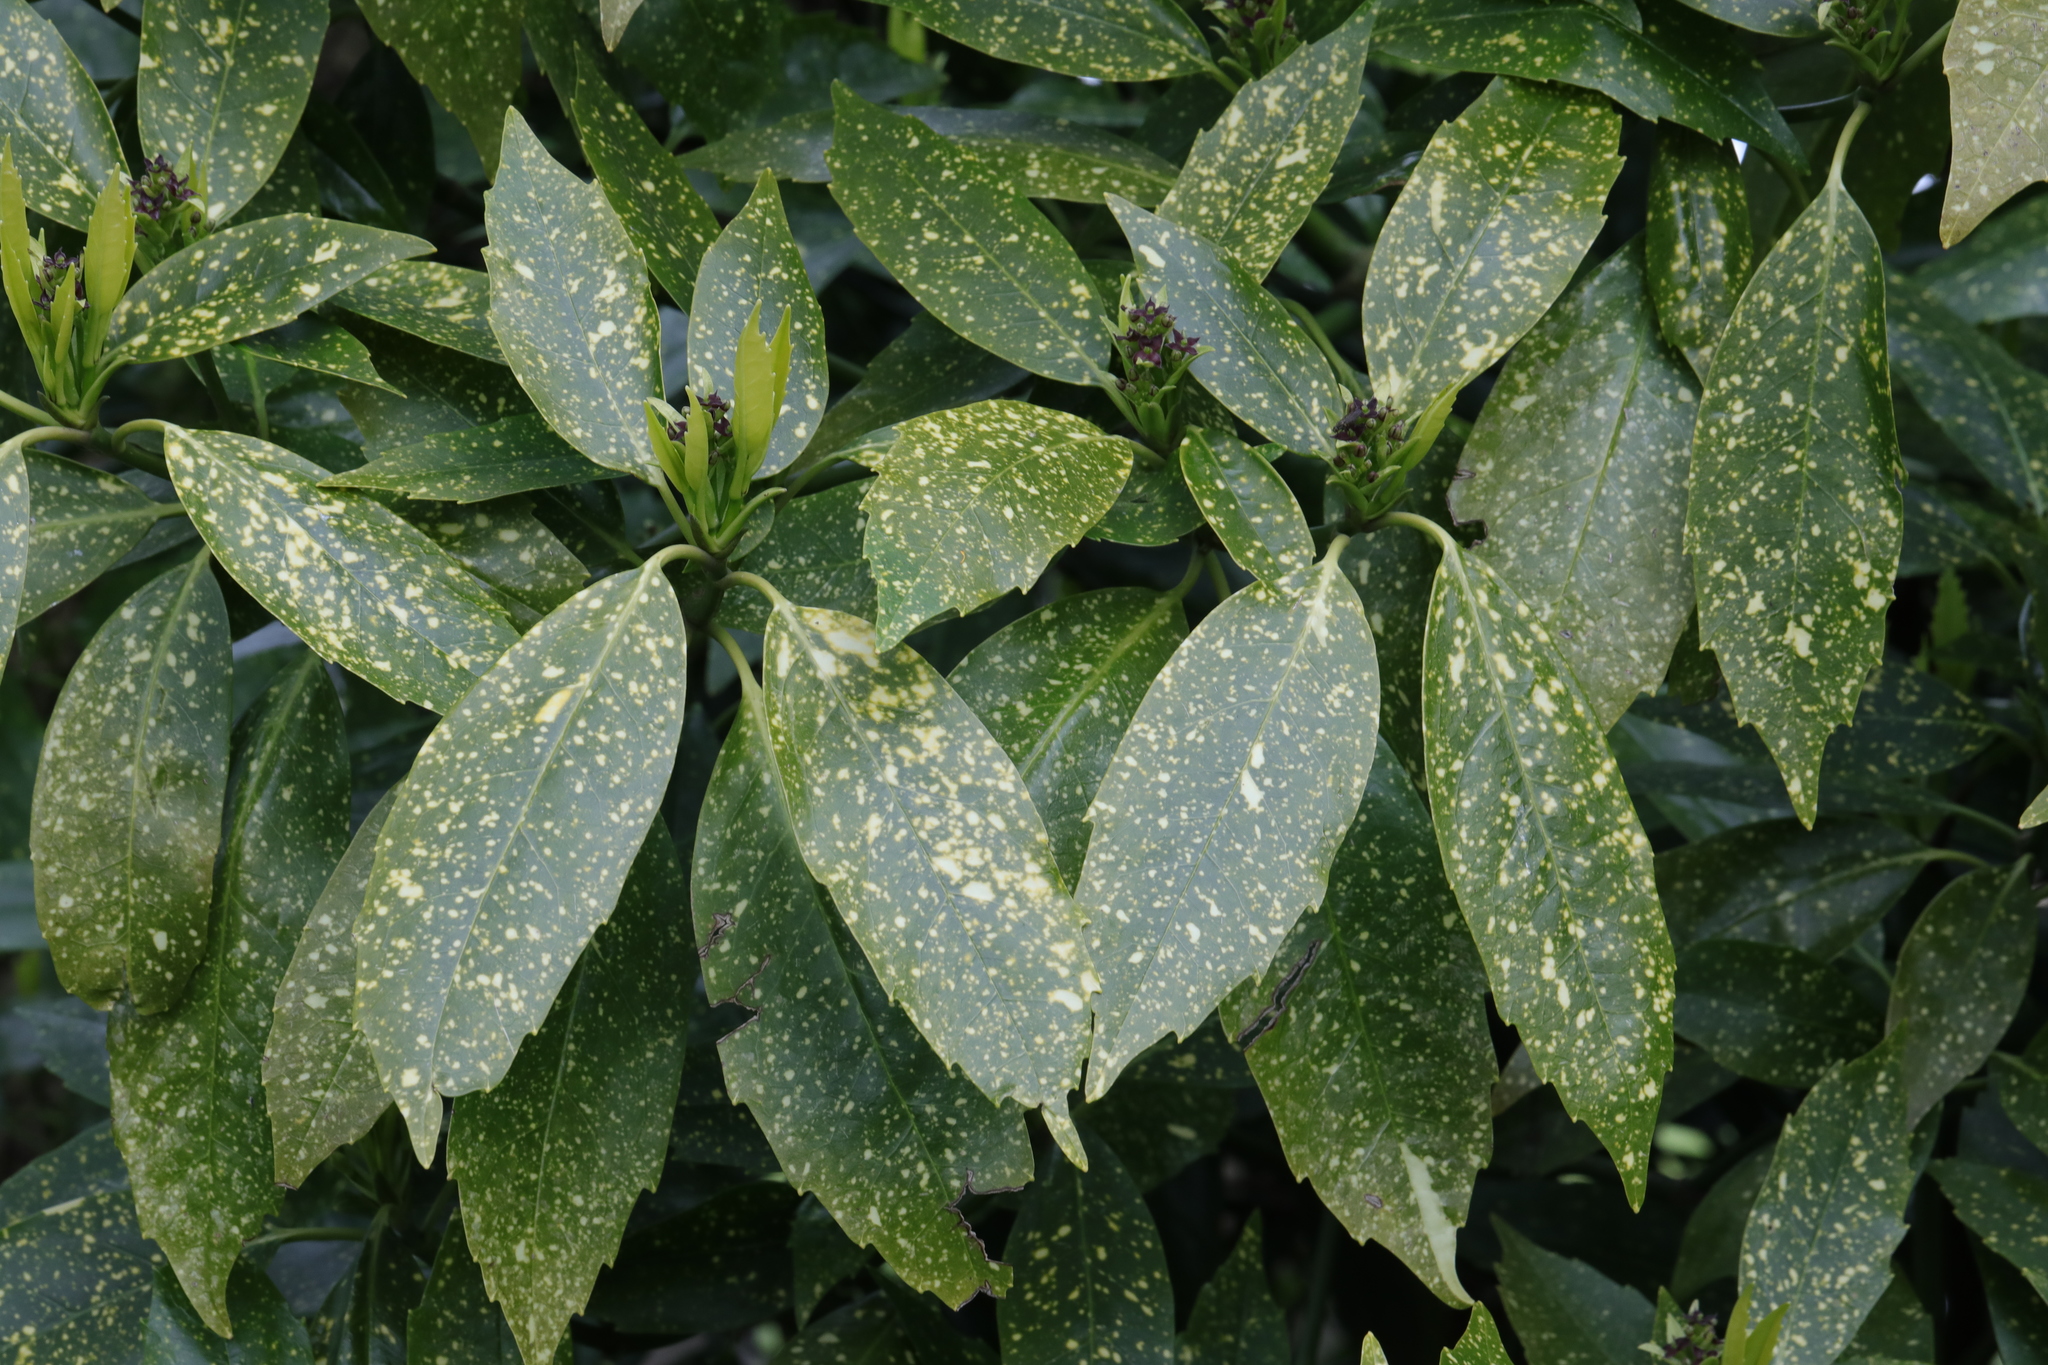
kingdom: Plantae
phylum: Tracheophyta
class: Magnoliopsida
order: Garryales
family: Garryaceae
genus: Aucuba
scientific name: Aucuba japonica
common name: Spotted-laurel
